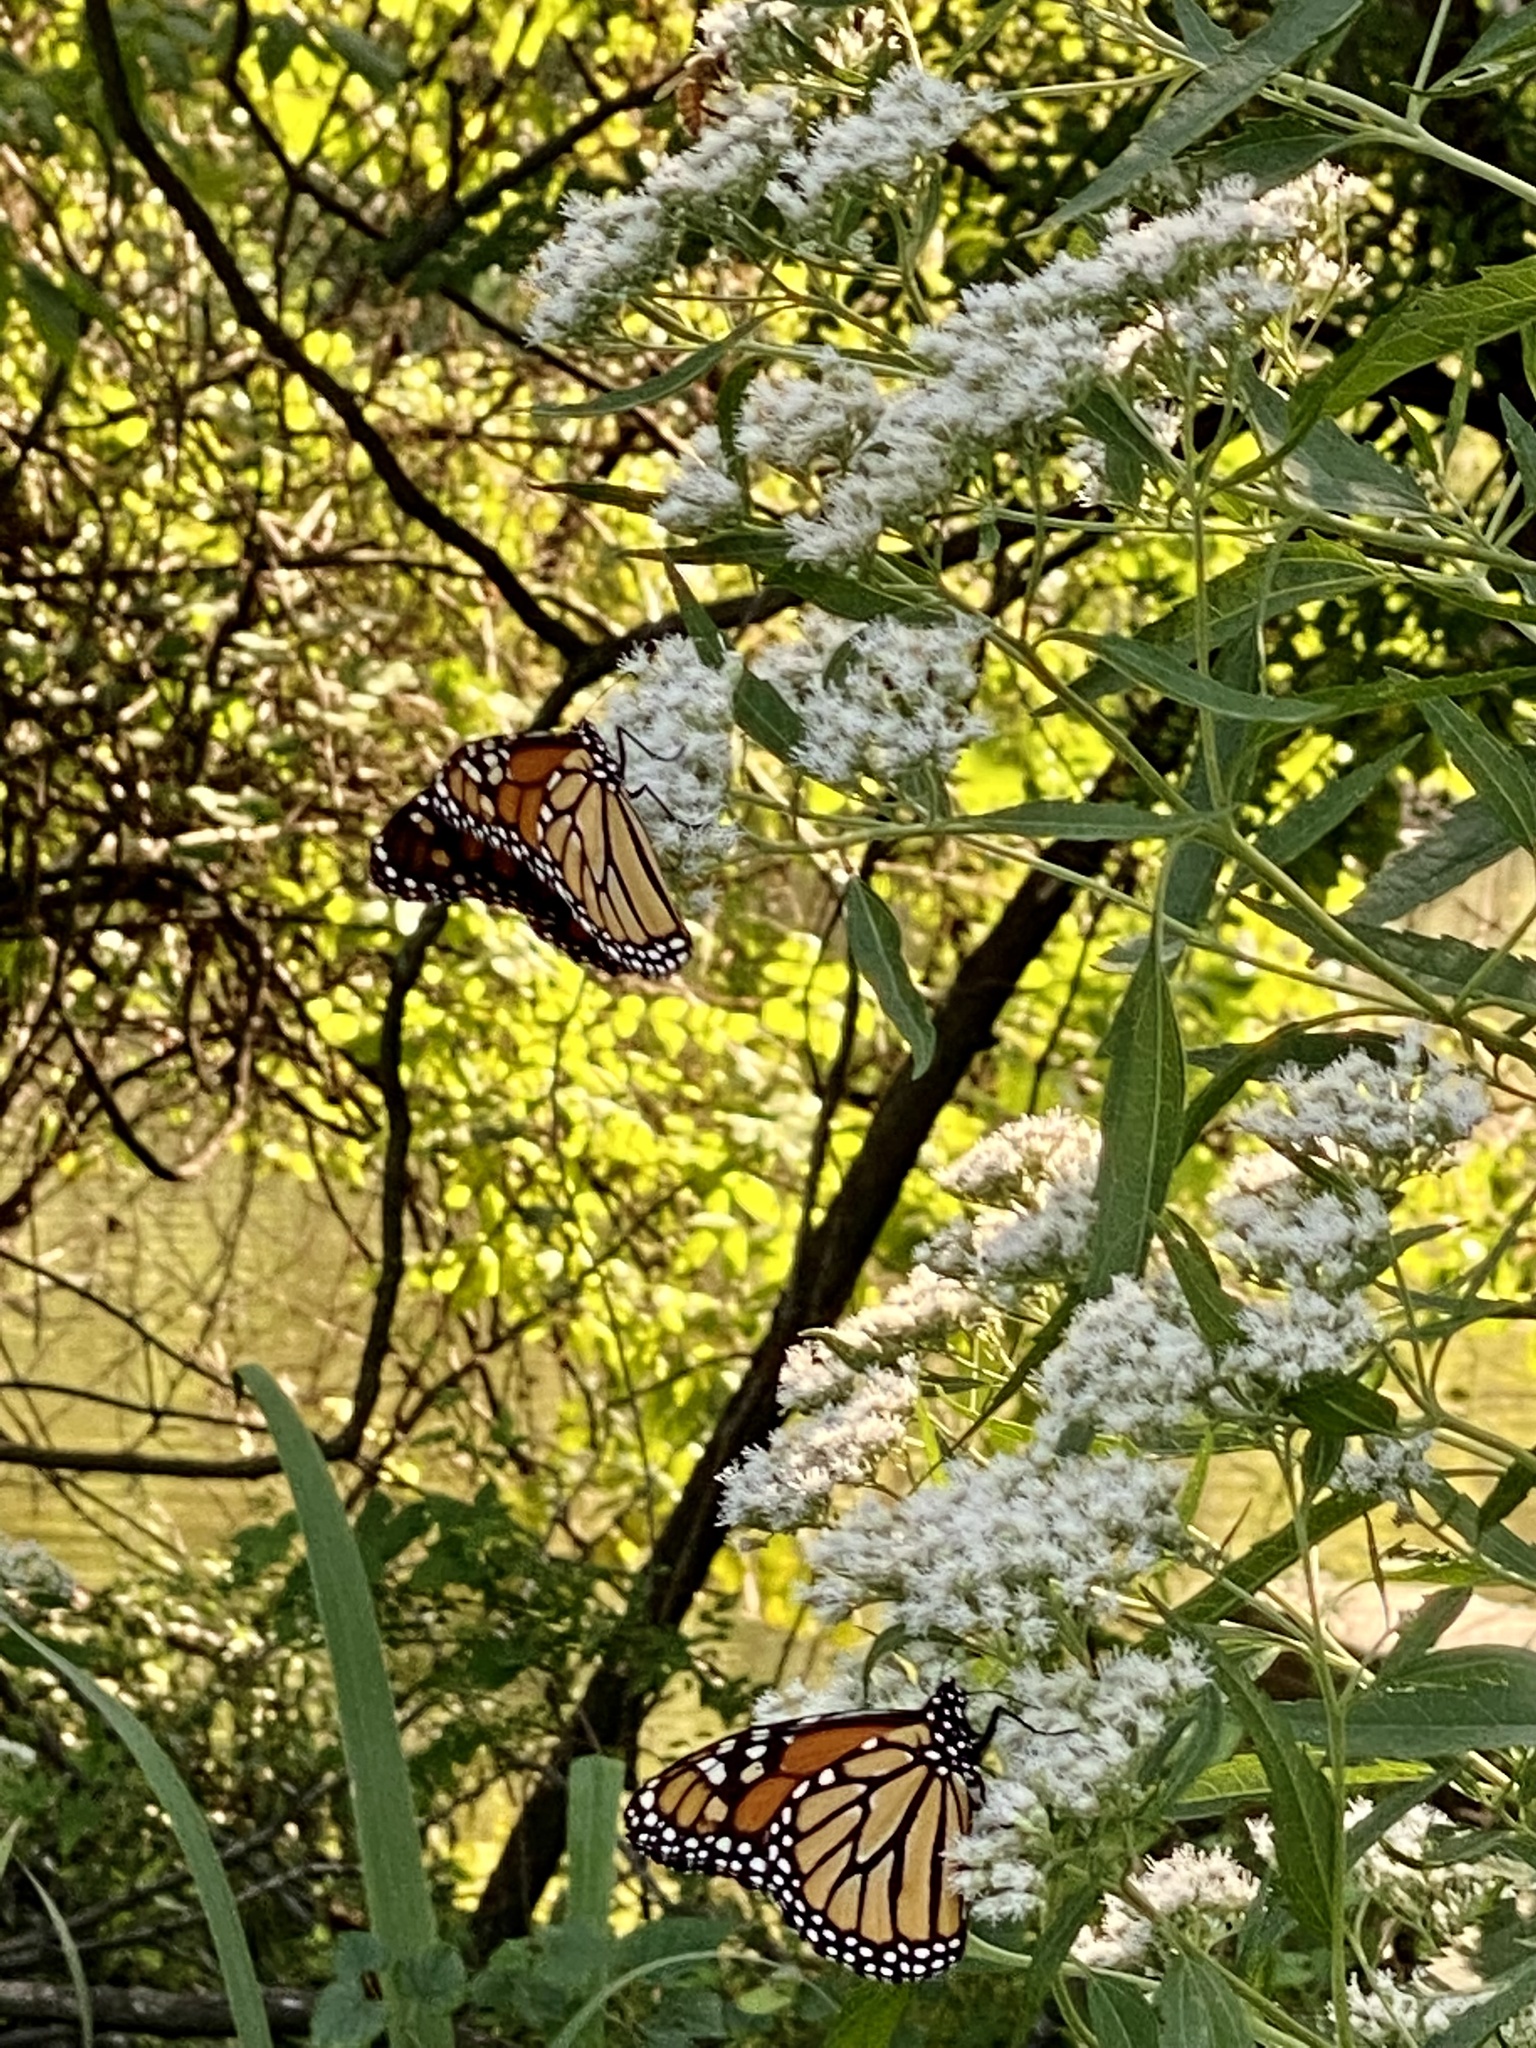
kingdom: Animalia
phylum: Arthropoda
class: Insecta
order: Lepidoptera
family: Nymphalidae
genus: Danaus
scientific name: Danaus plexippus
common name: Monarch
